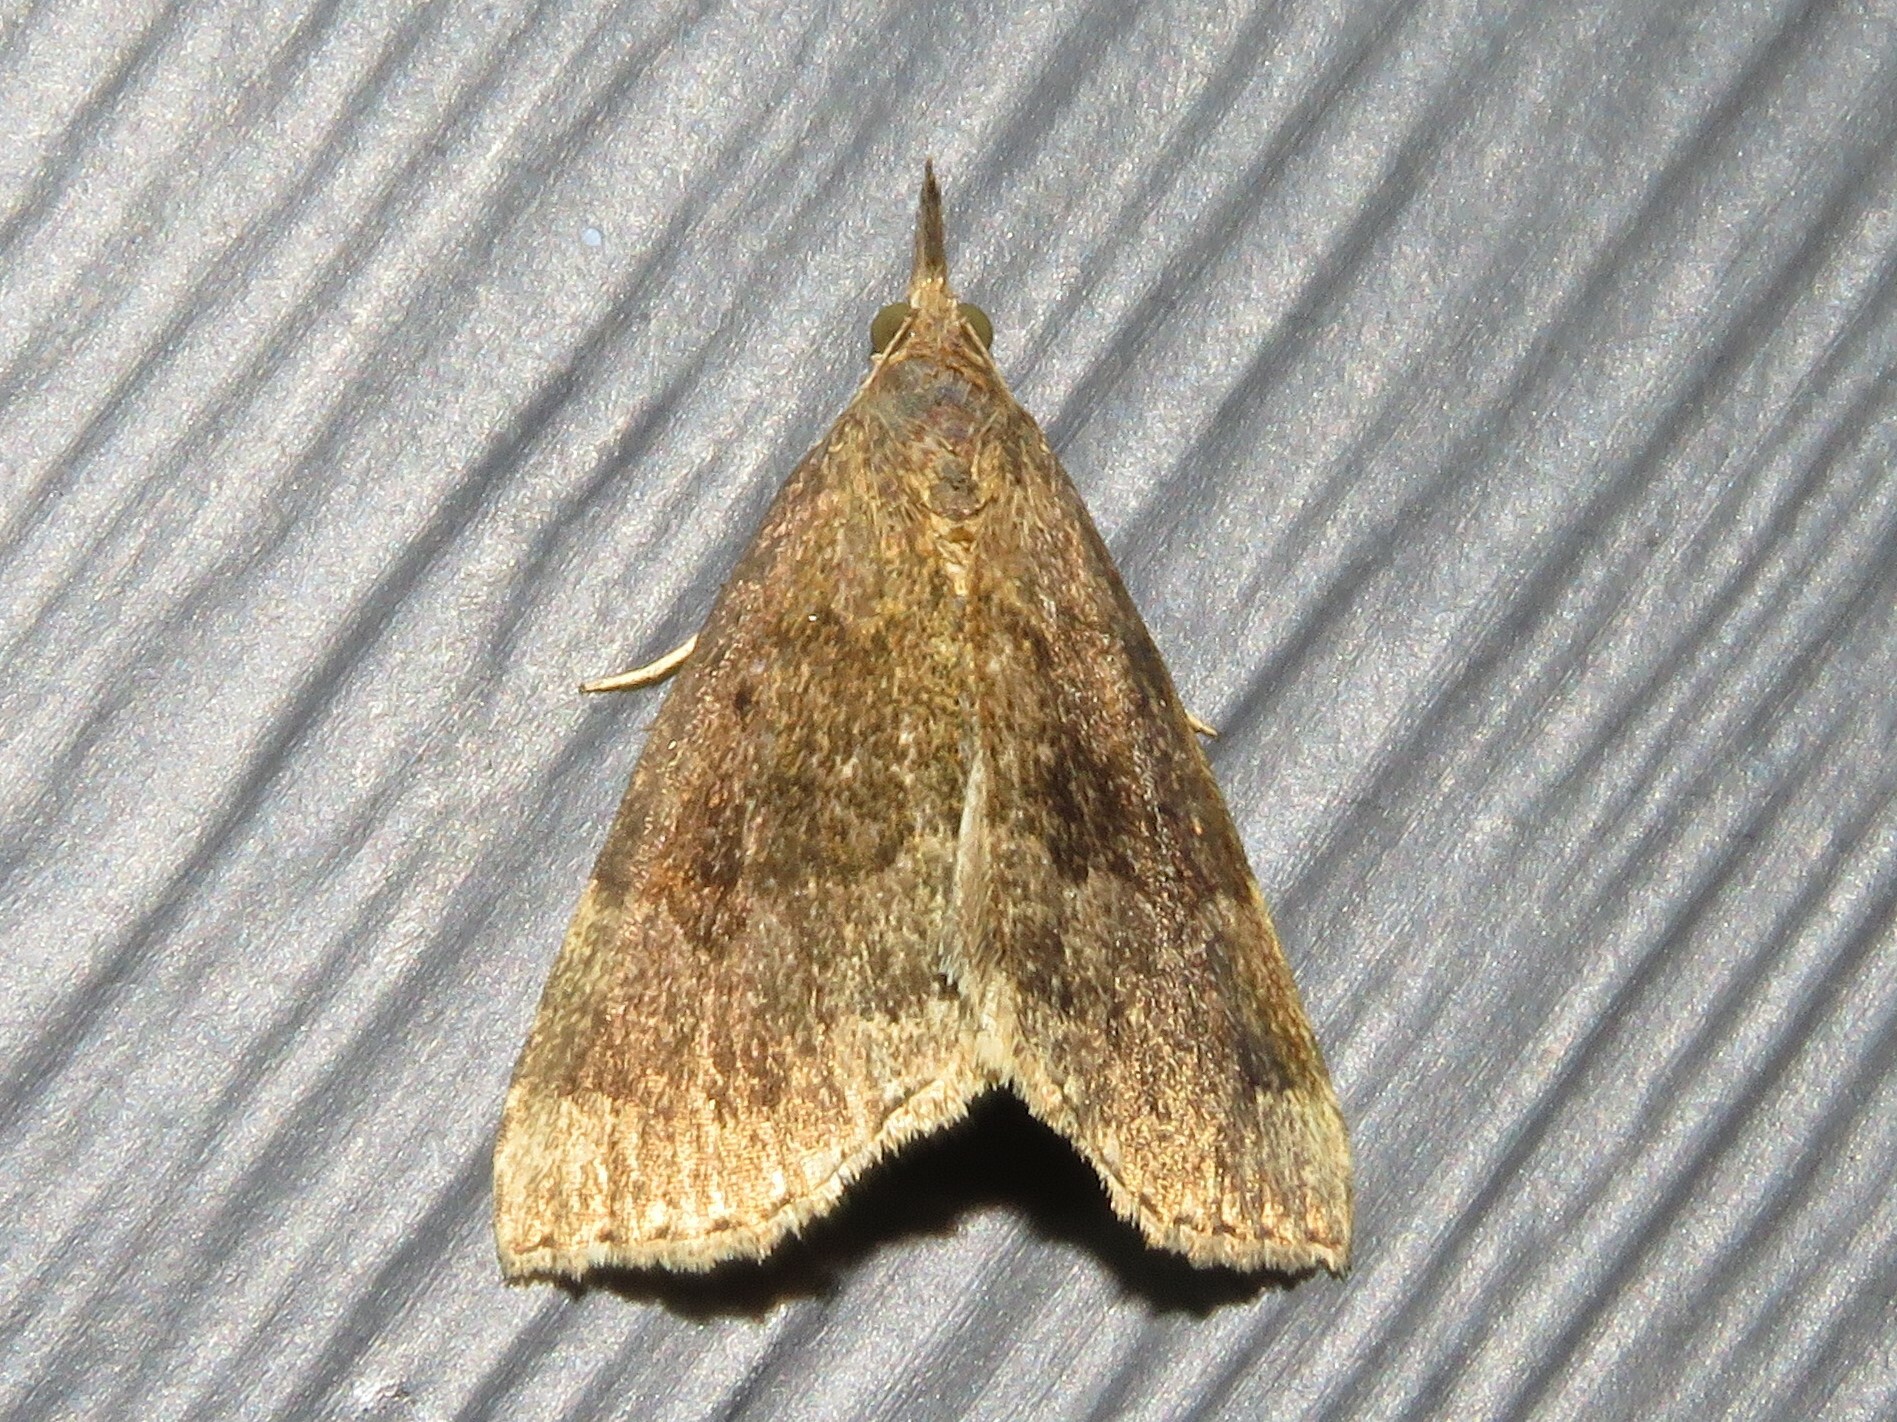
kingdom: Animalia
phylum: Arthropoda
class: Insecta
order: Lepidoptera
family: Erebidae
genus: Hypena
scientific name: Hypena madefactalis
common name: Gray-edged snout
